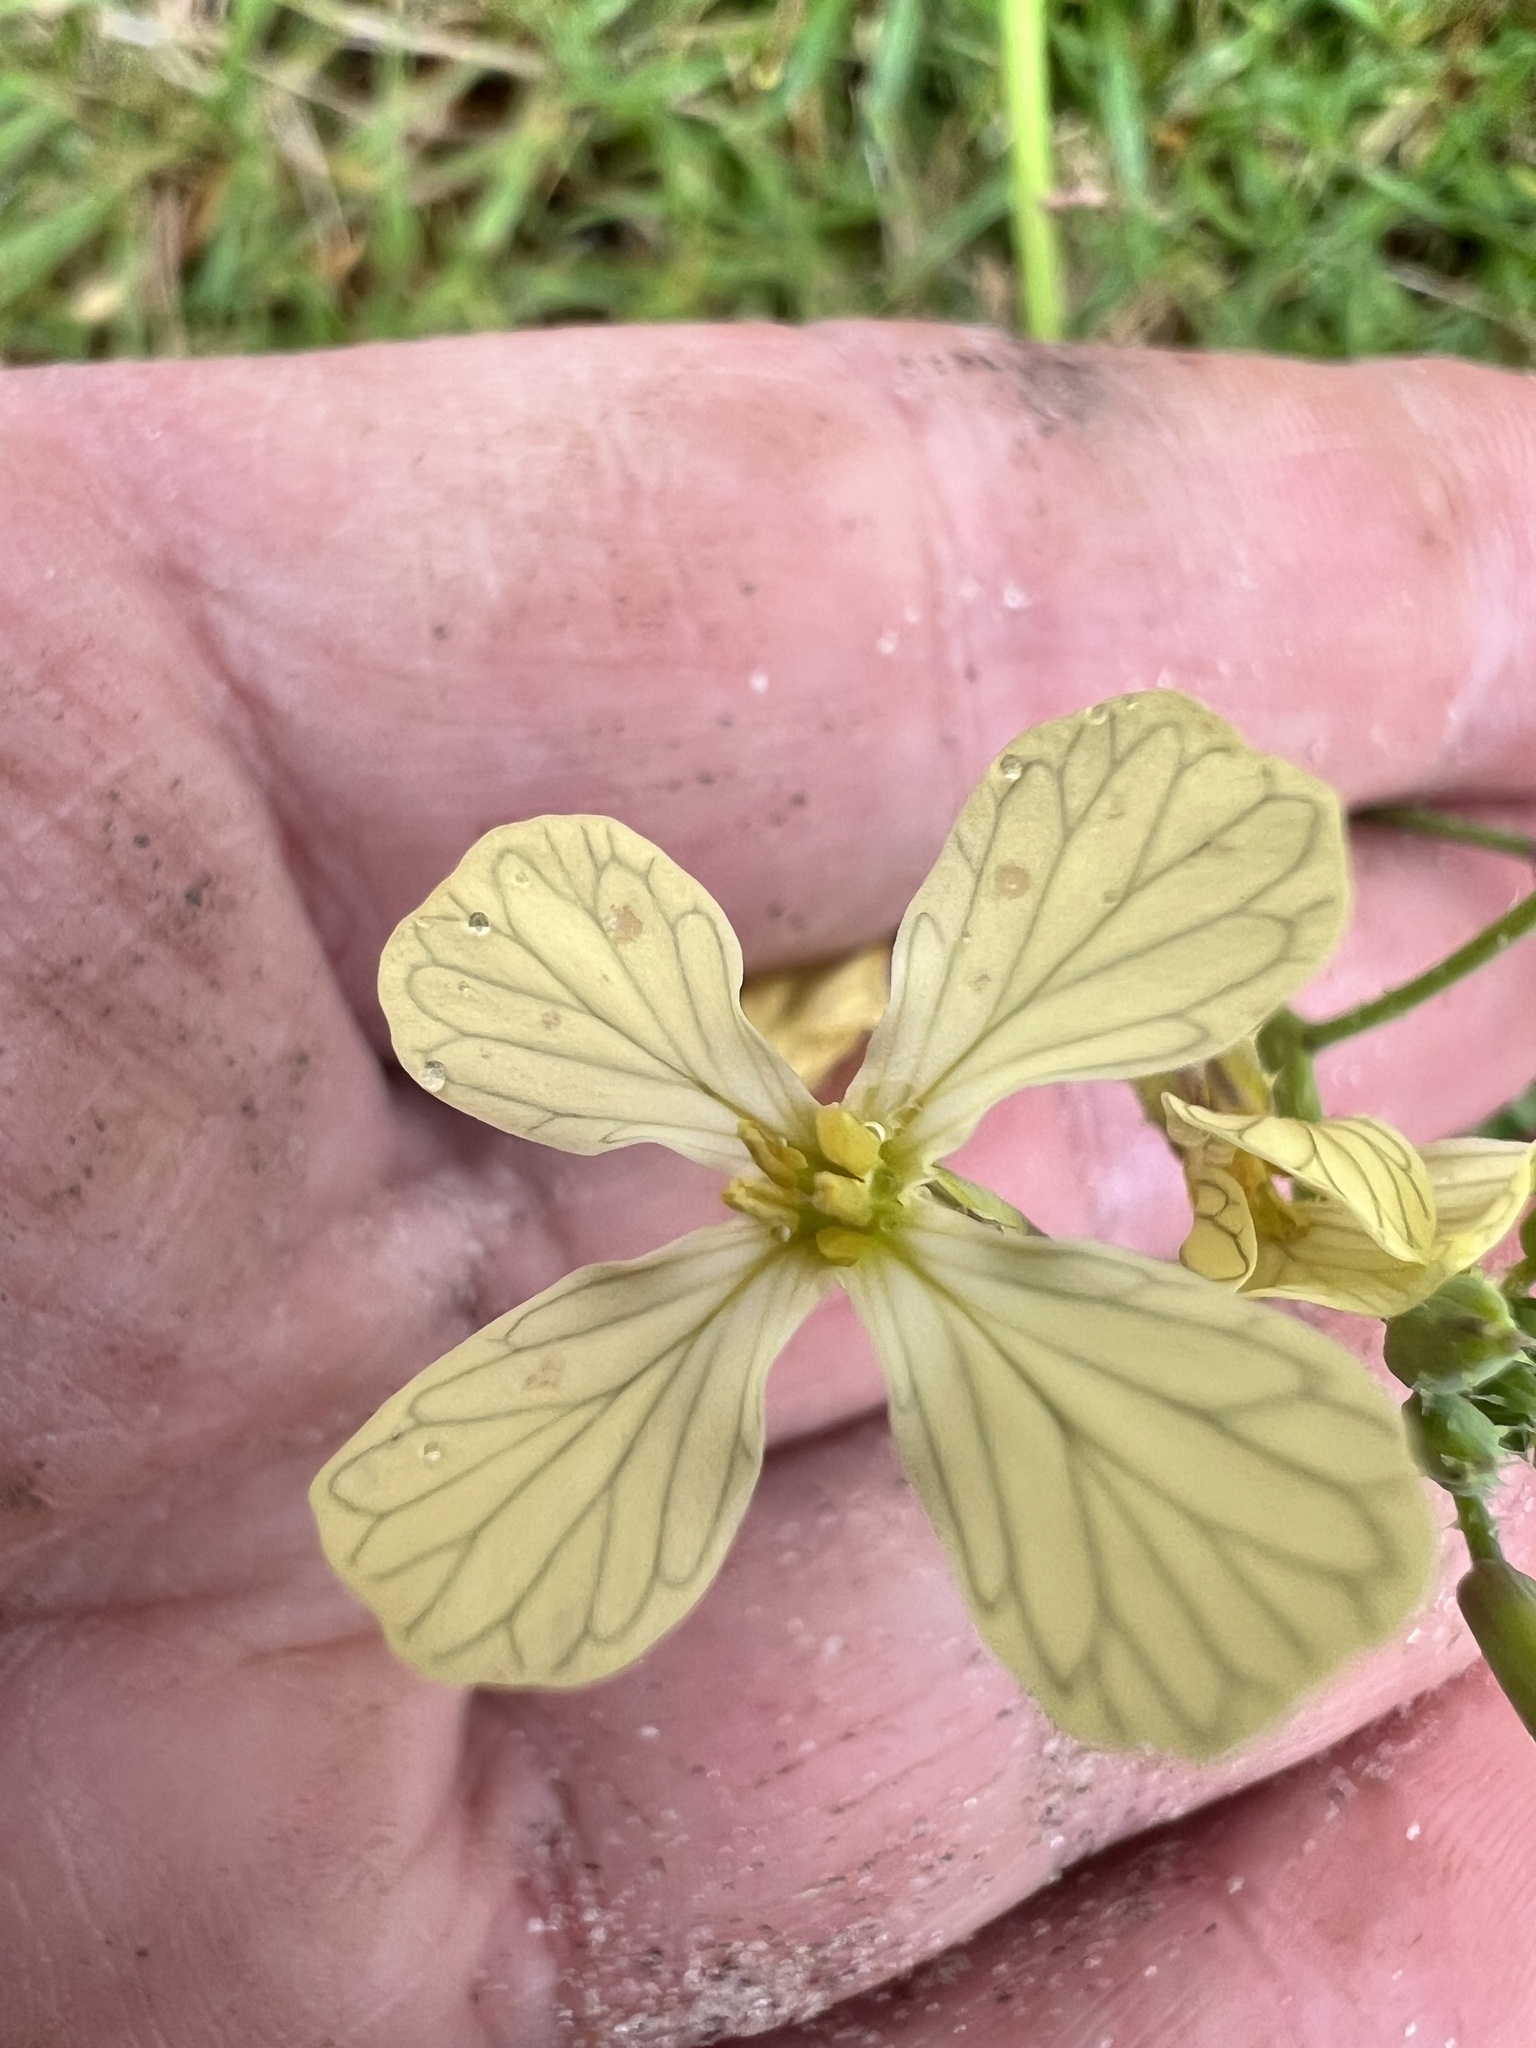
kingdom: Plantae
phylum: Tracheophyta
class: Magnoliopsida
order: Brassicales
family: Brassicaceae
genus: Raphanus
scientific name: Raphanus raphanistrum
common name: Wild radish
